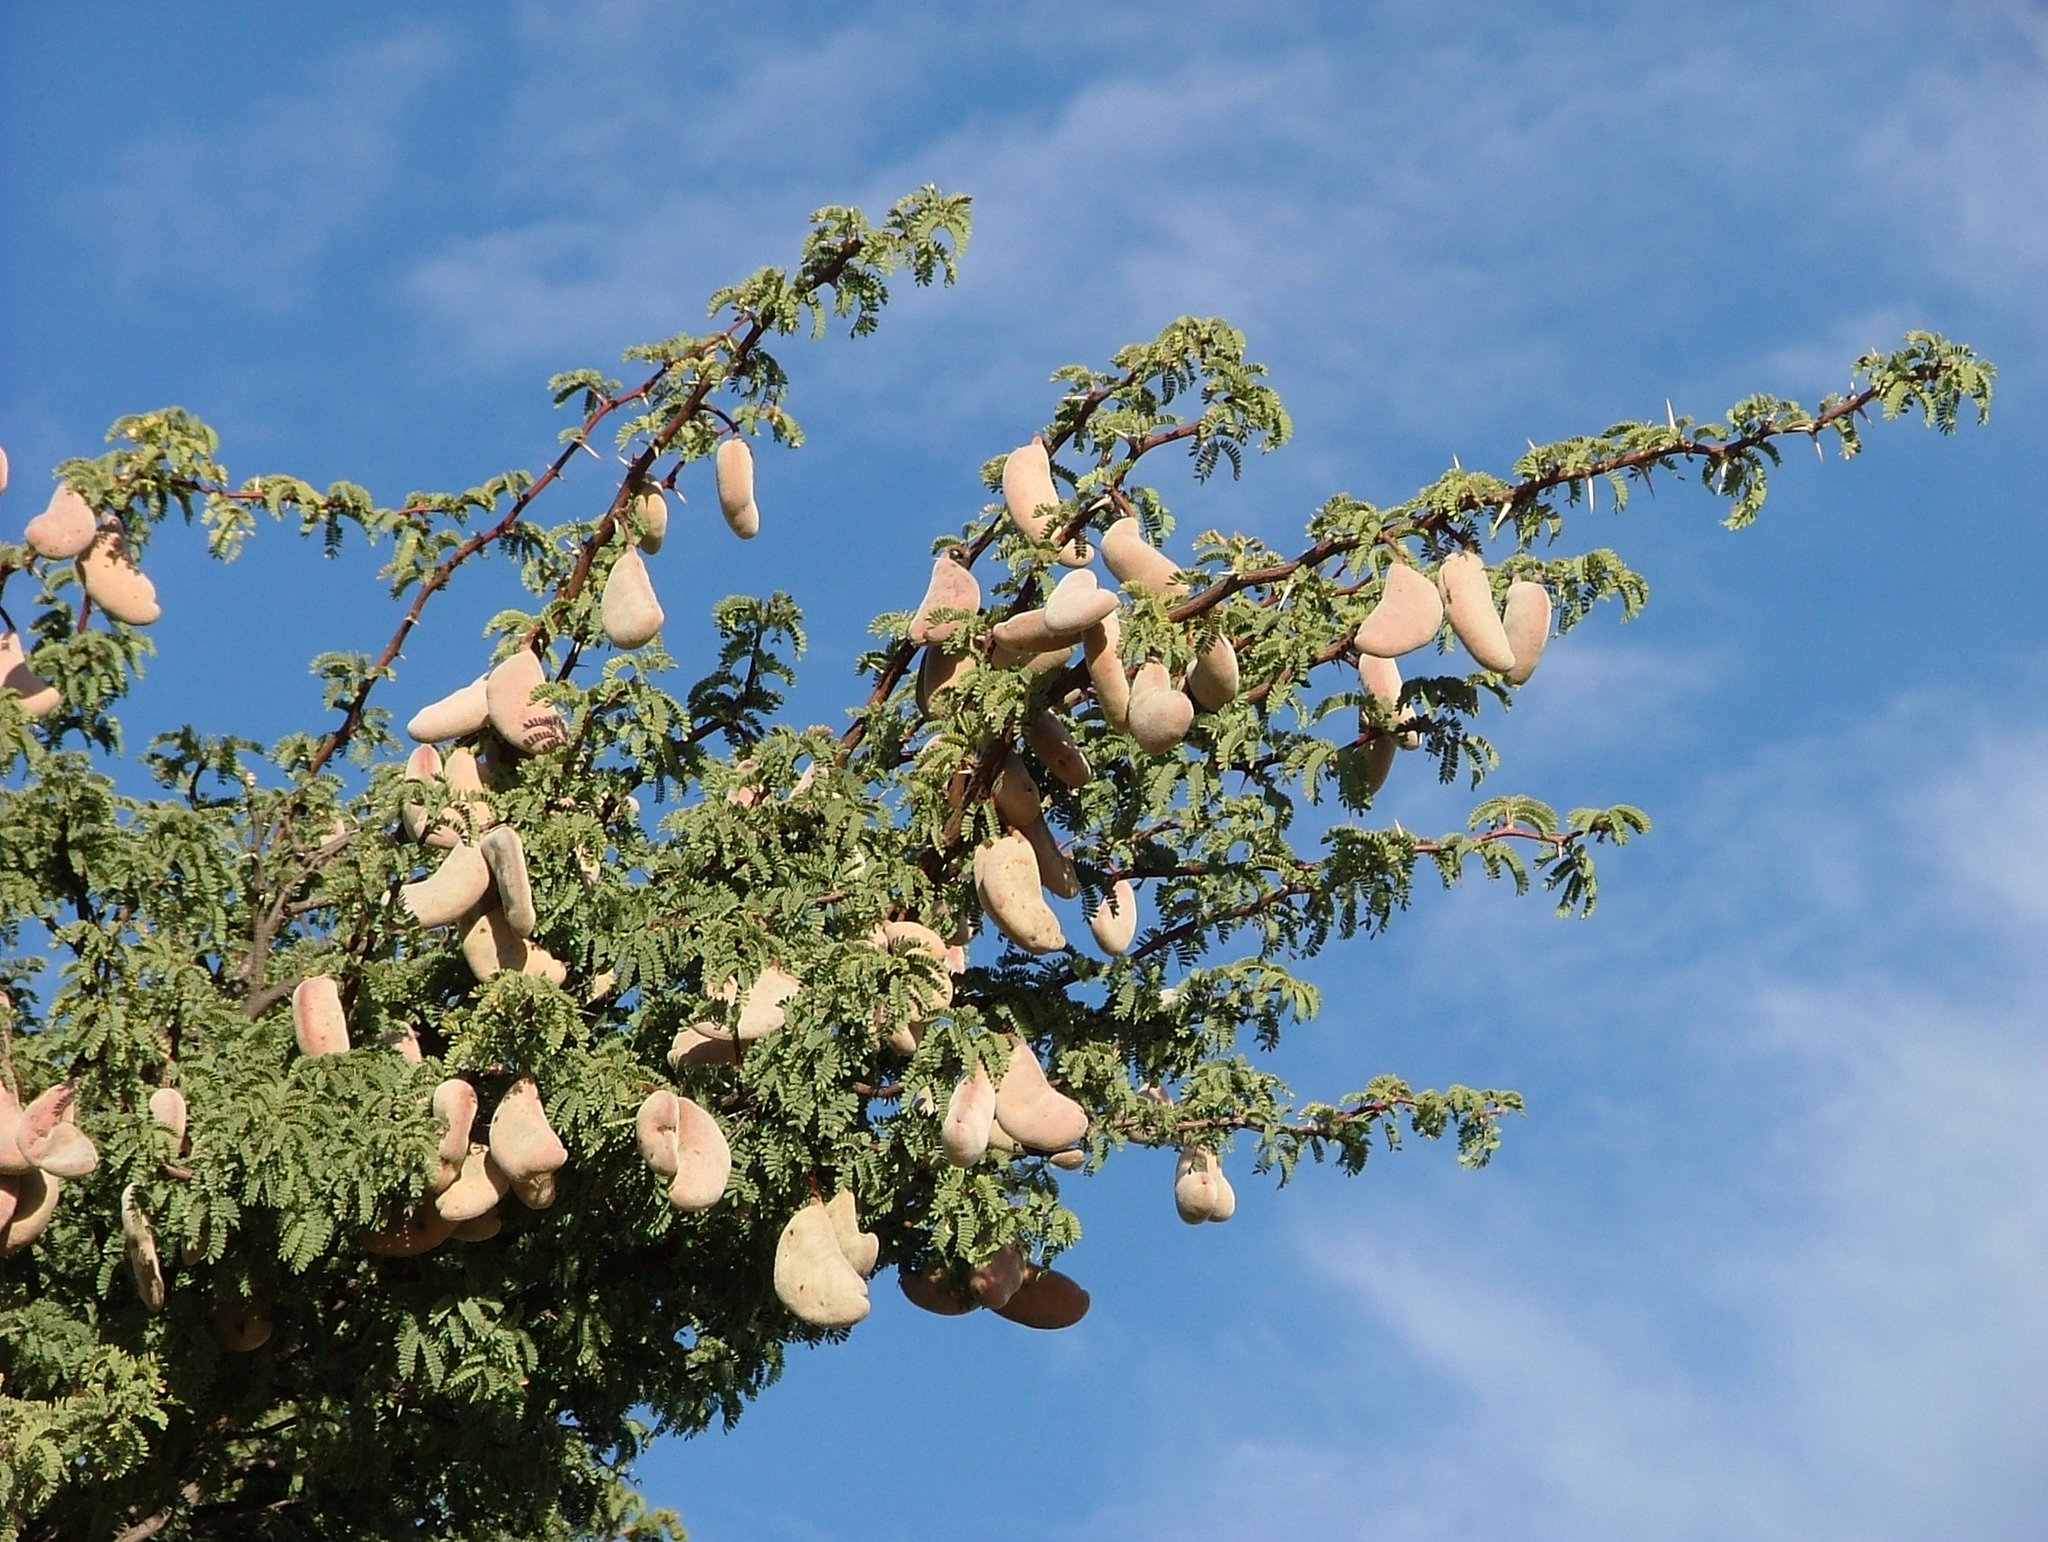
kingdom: Plantae
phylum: Tracheophyta
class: Magnoliopsida
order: Fabales
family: Fabaceae
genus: Vachellia
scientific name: Vachellia erioloba
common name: Camel thorn
